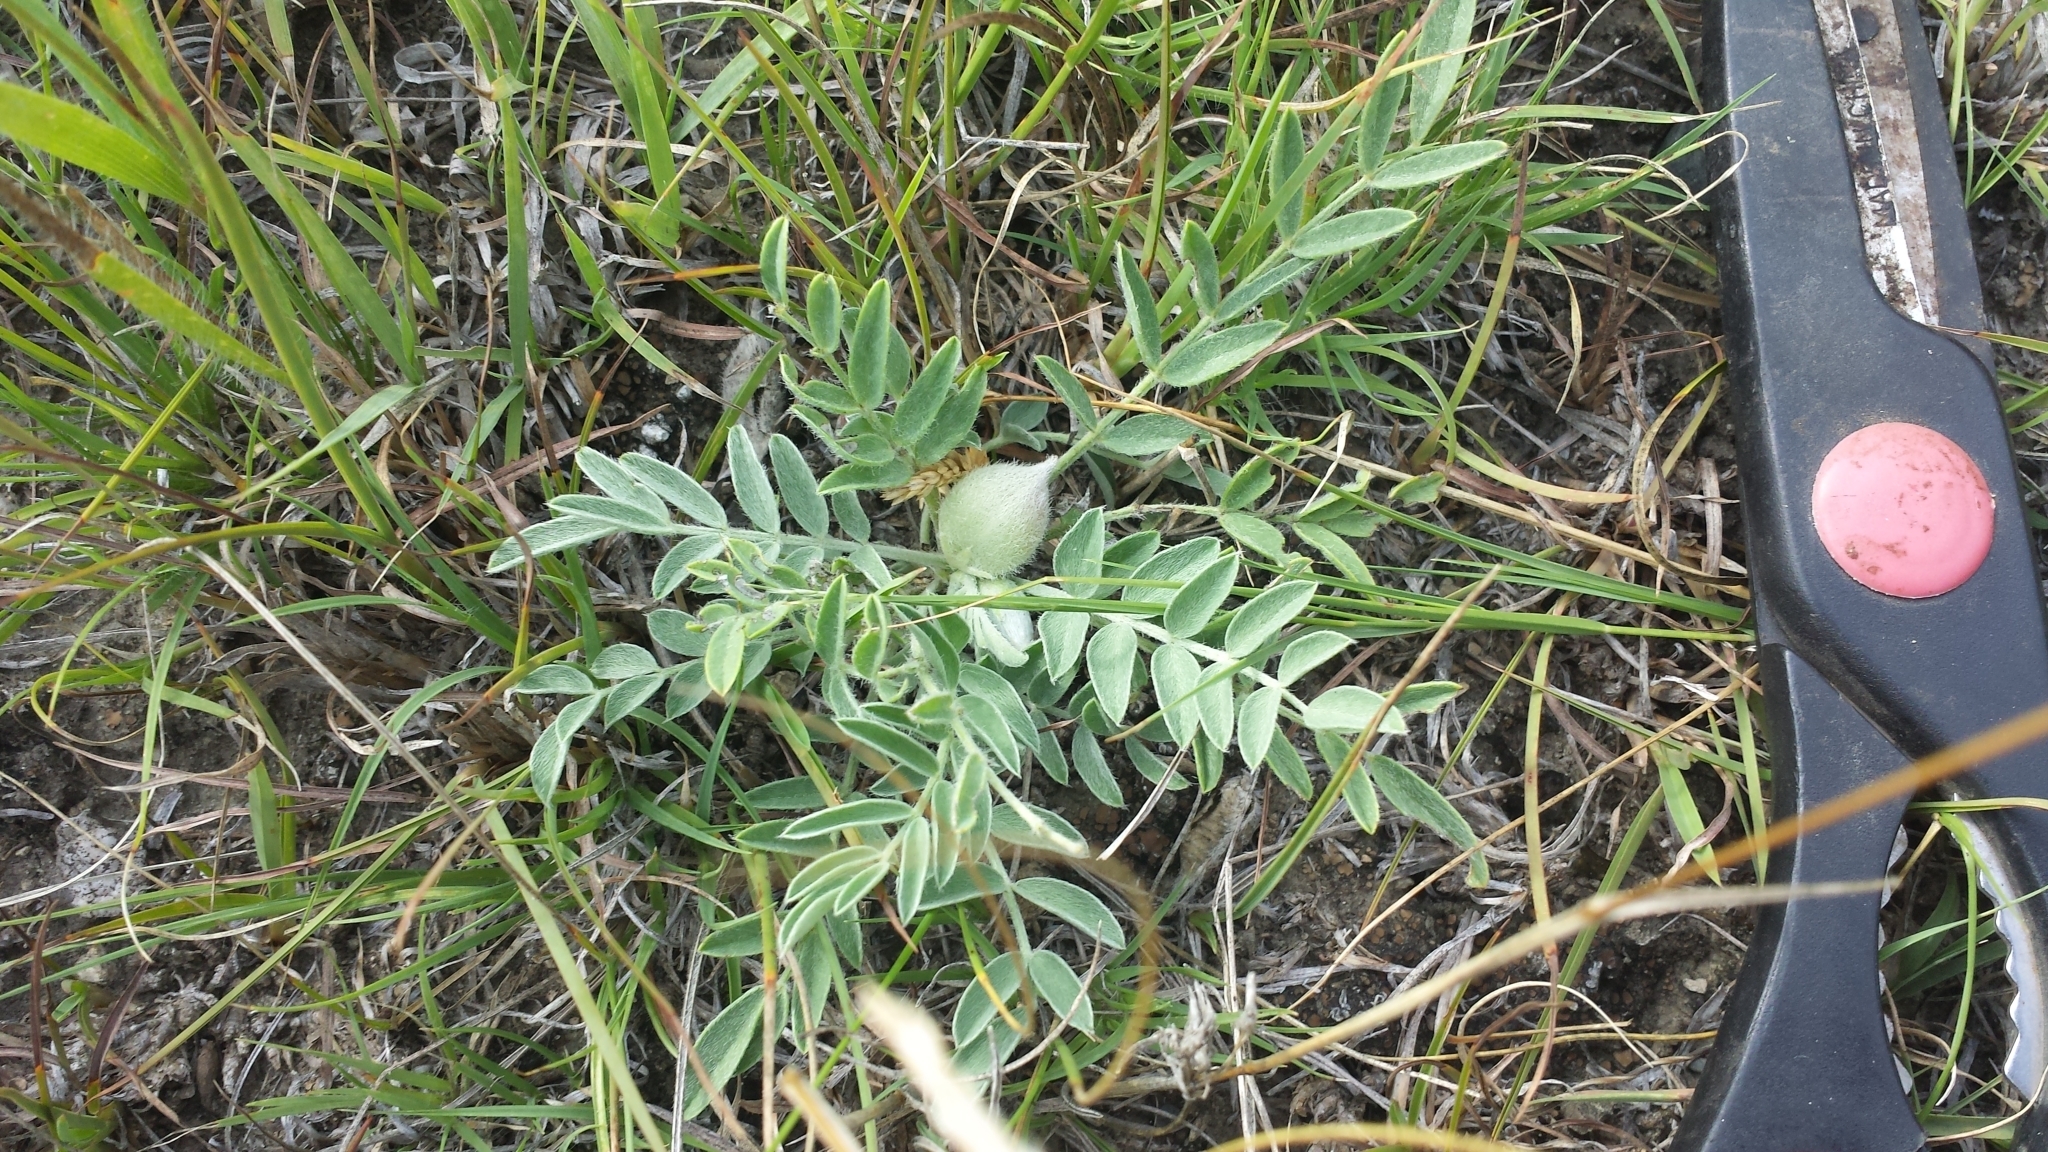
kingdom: Plantae
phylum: Tracheophyta
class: Magnoliopsida
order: Fabales
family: Fabaceae
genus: Astragalus
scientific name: Astragalus lotiflorus
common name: Lotus milk-vetch
